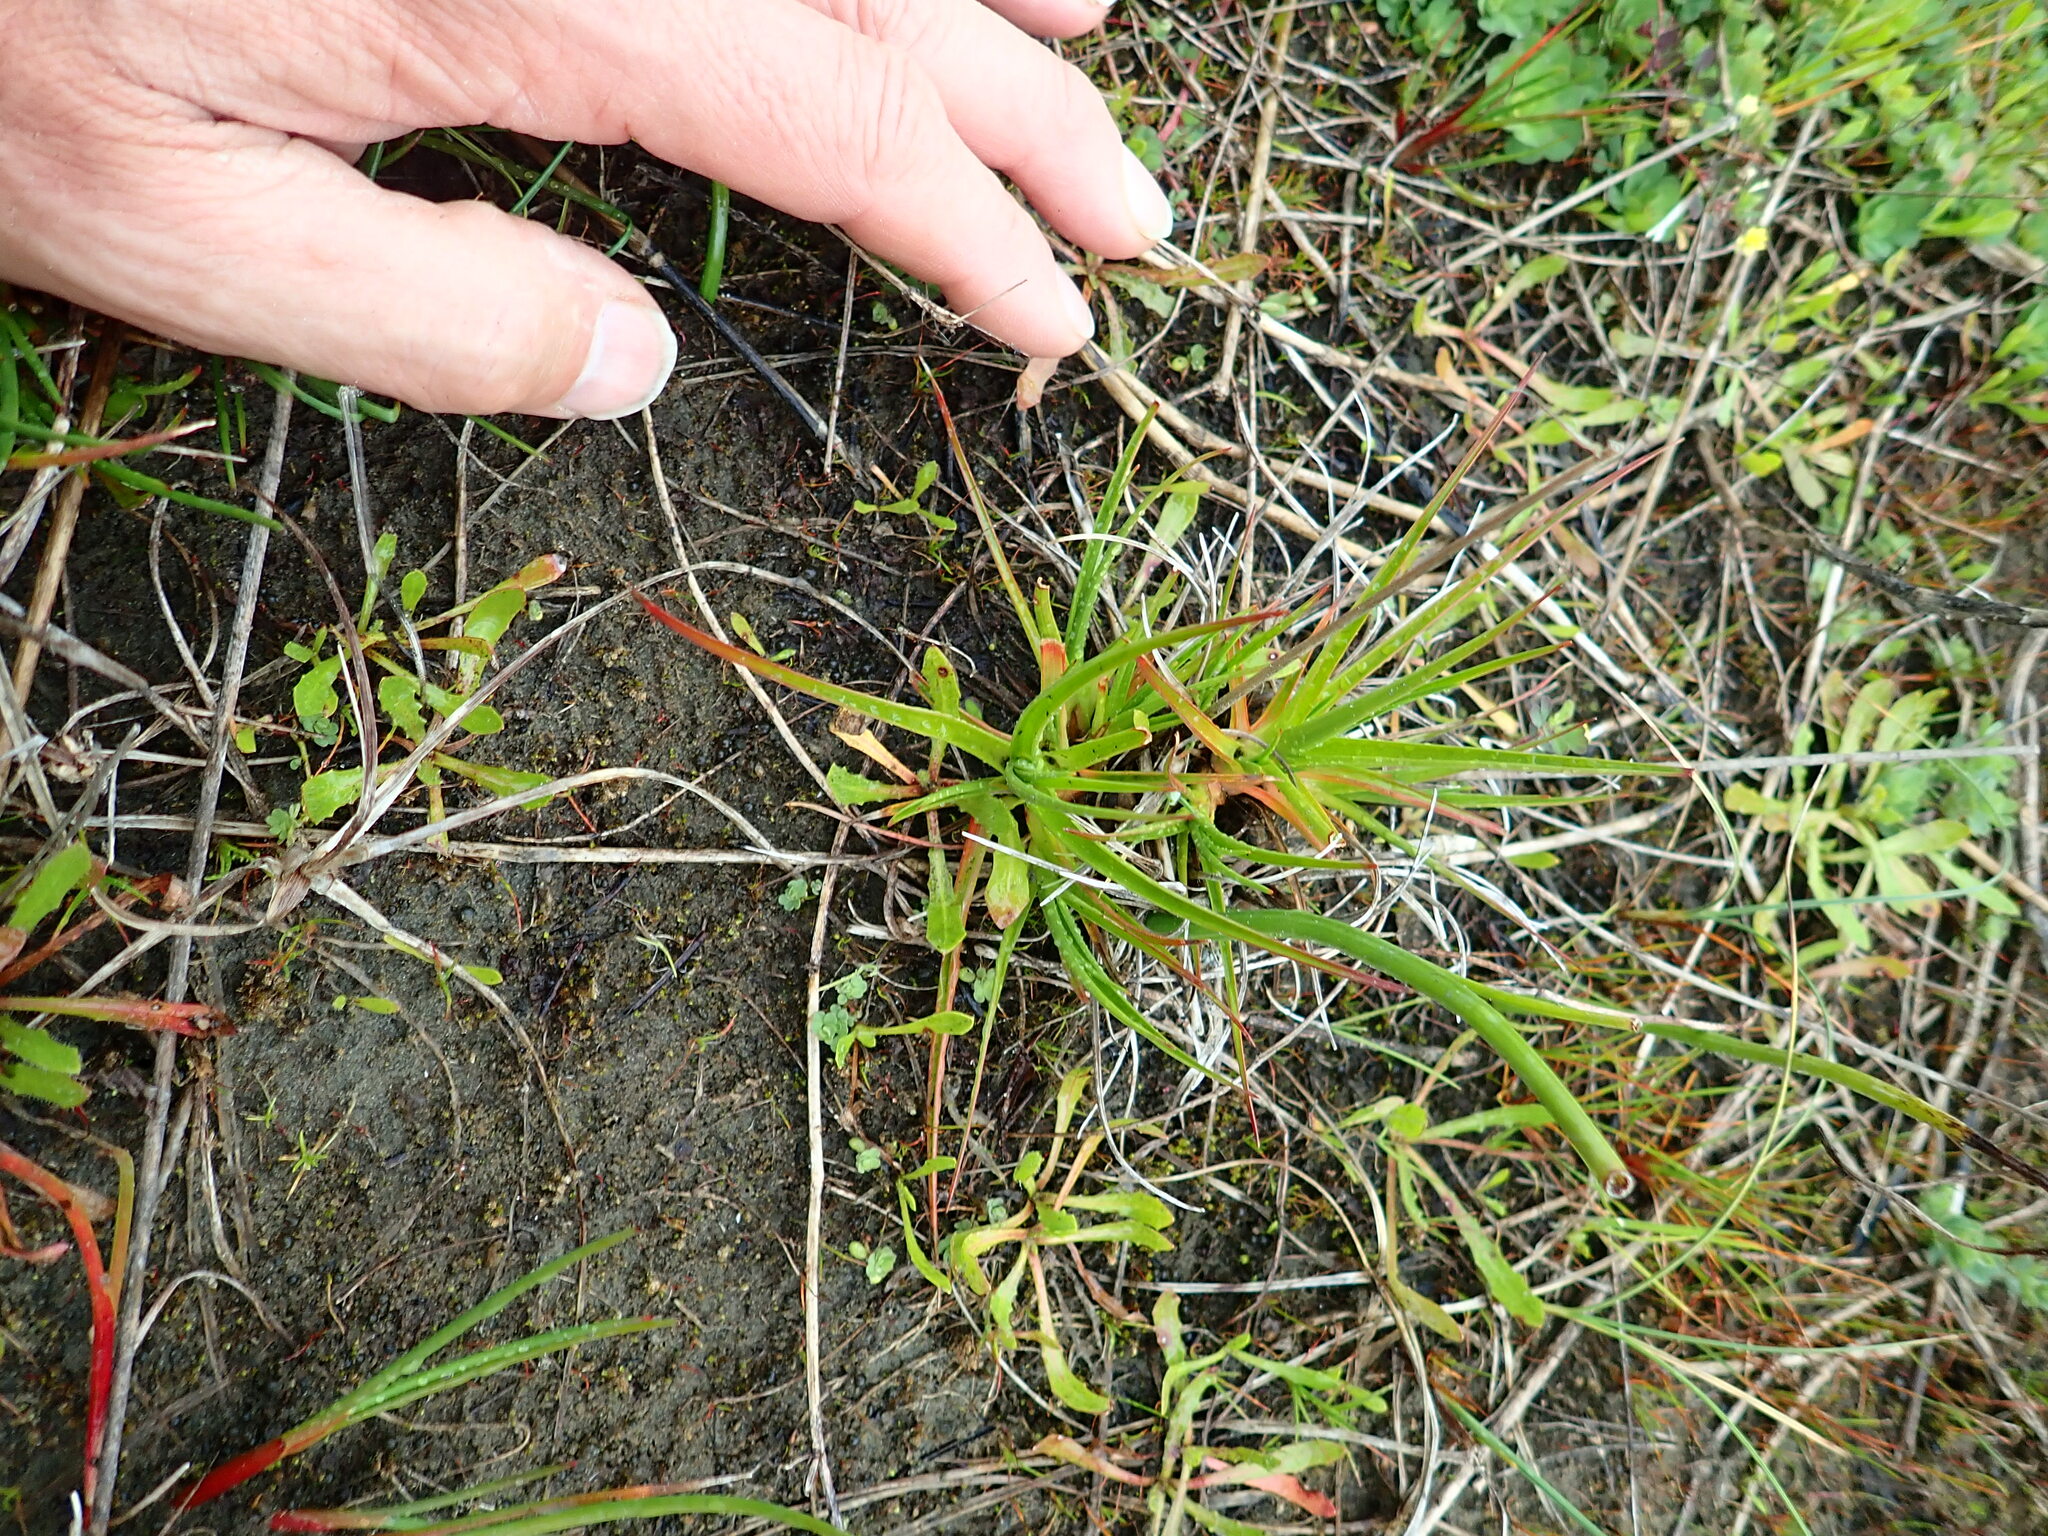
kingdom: Plantae
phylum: Tracheophyta
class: Liliopsida
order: Poales
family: Juncaceae
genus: Juncus
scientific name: Juncus caespiticius
